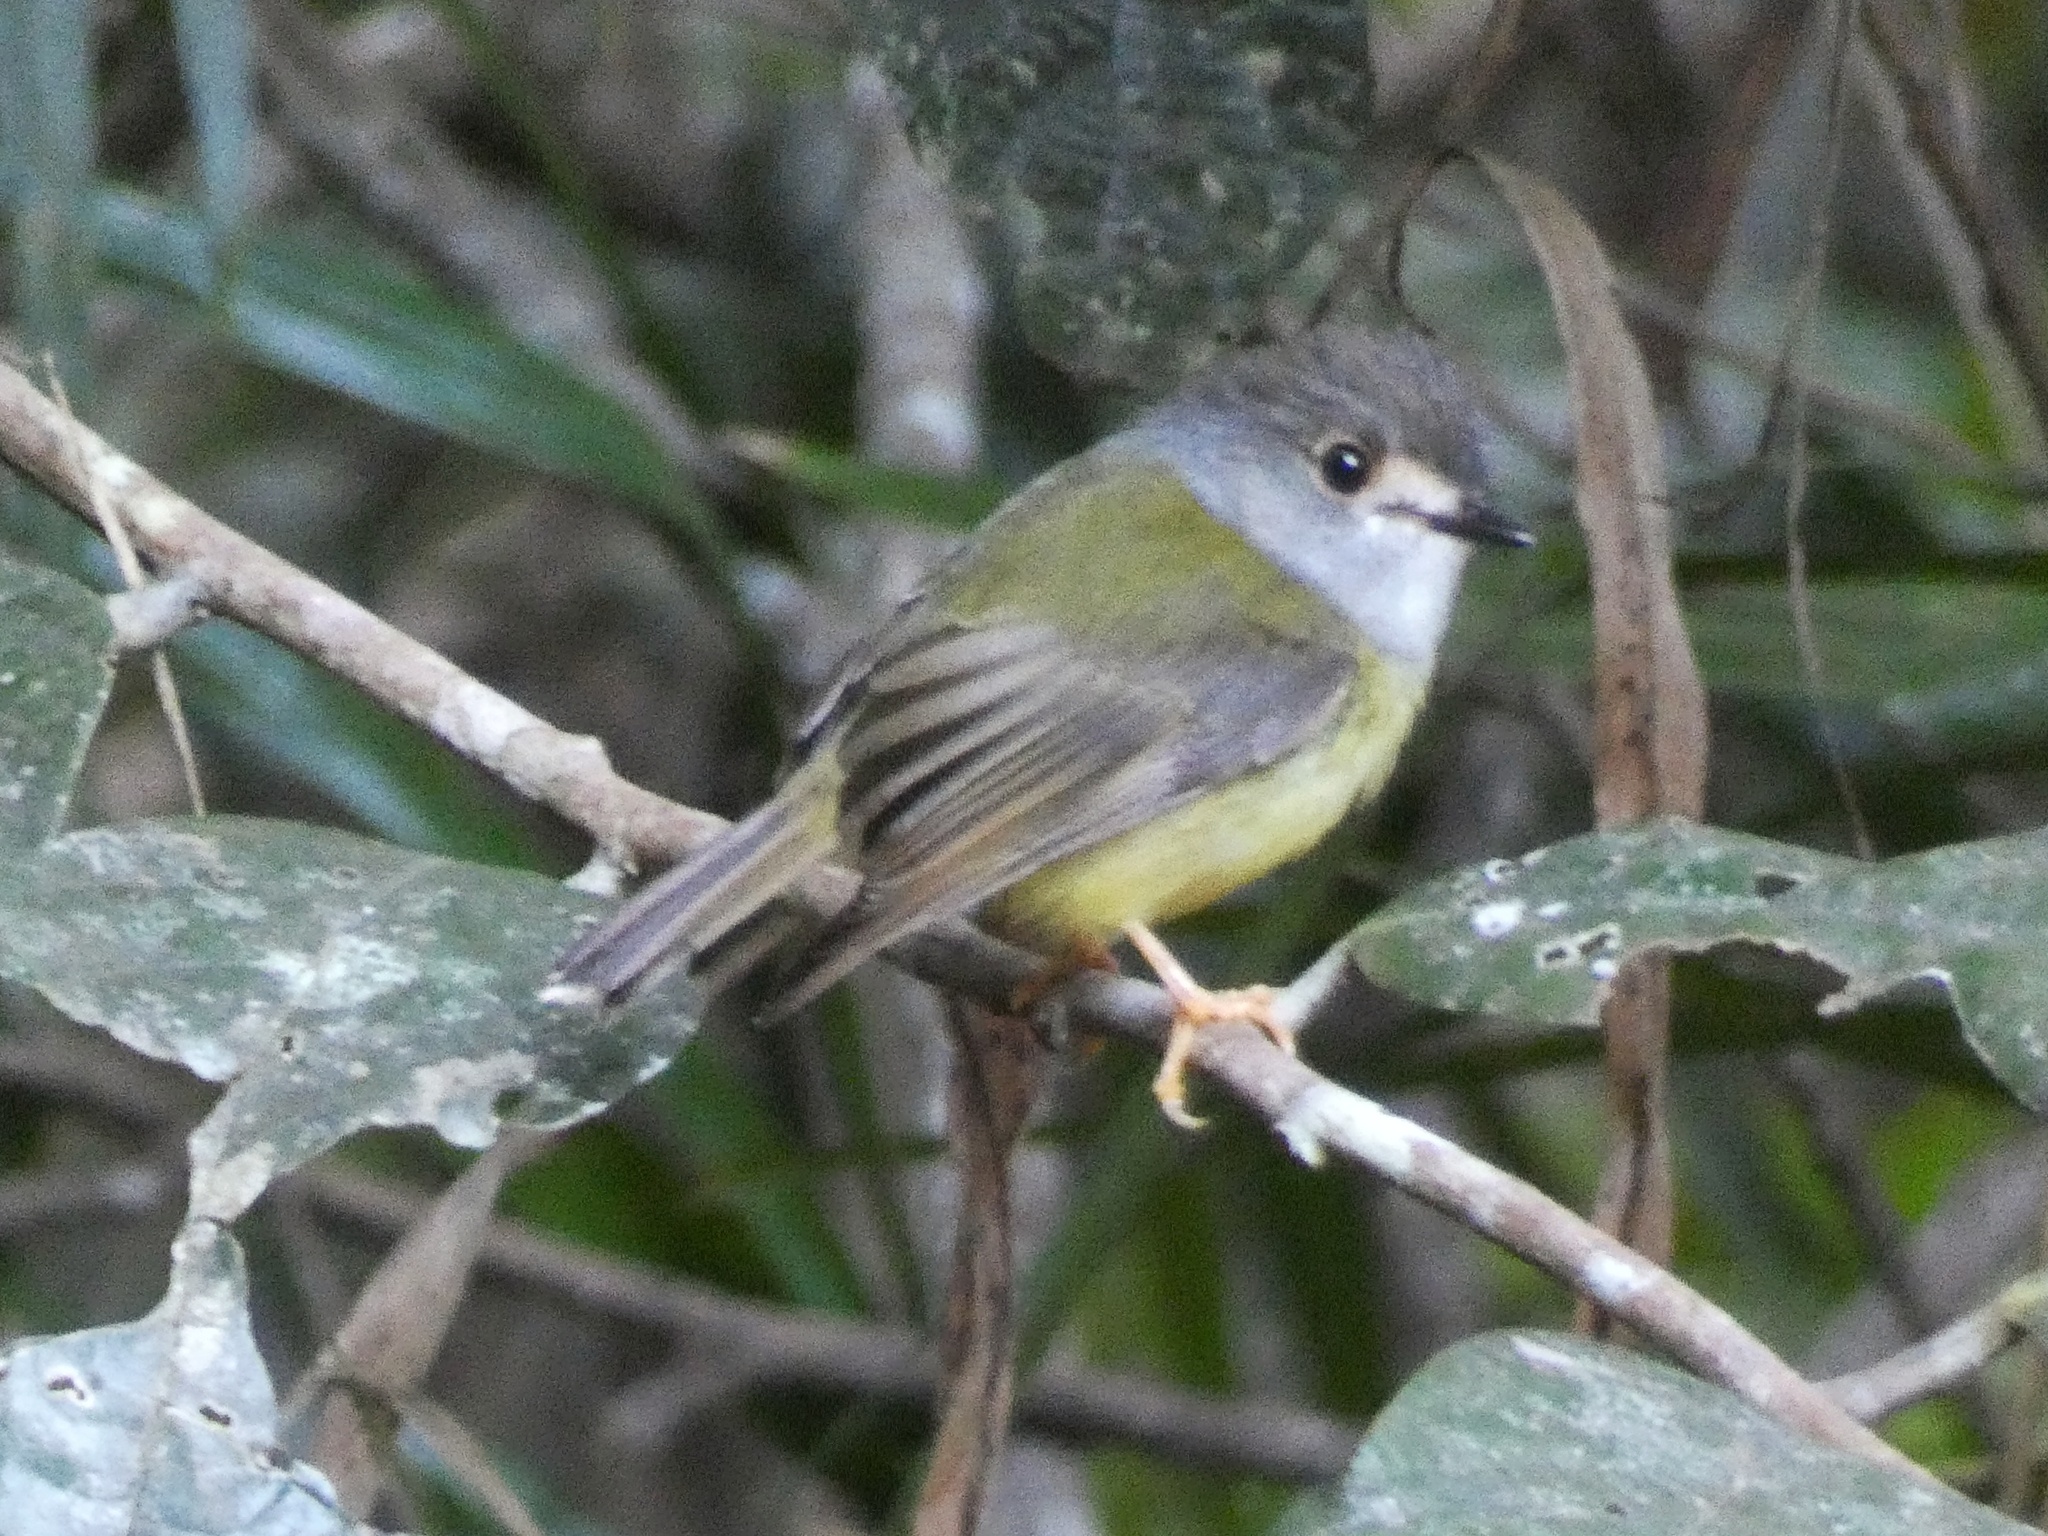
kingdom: Animalia
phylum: Chordata
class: Aves
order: Passeriformes
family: Petroicidae
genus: Eopsaltria
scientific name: Eopsaltria
